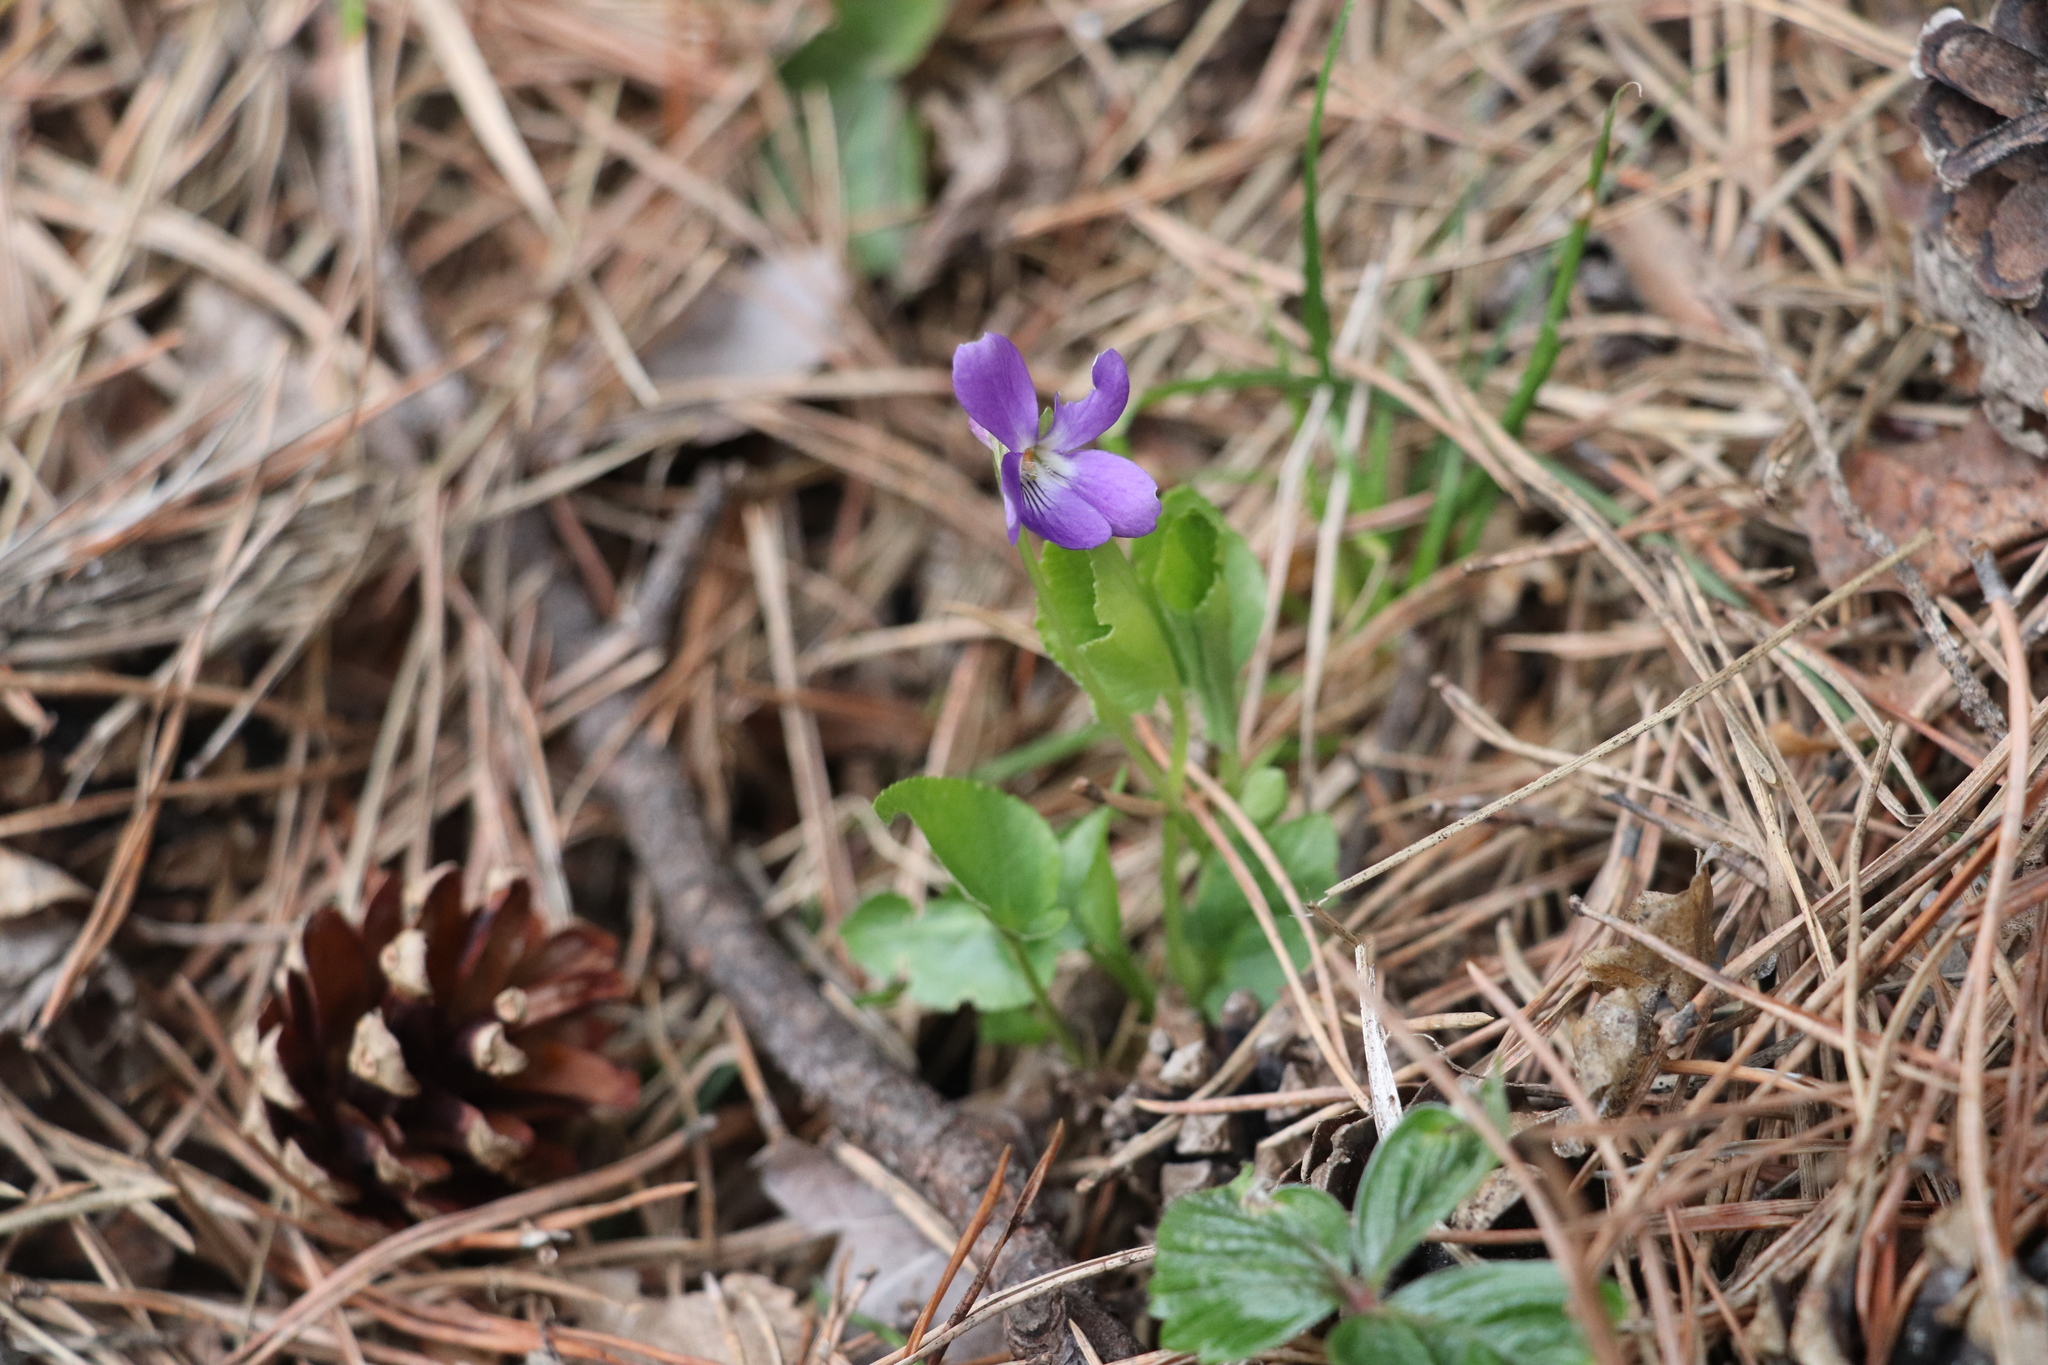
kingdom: Plantae
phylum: Tracheophyta
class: Magnoliopsida
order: Malpighiales
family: Violaceae
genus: Viola
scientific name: Viola hirta
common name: Hairy violet
